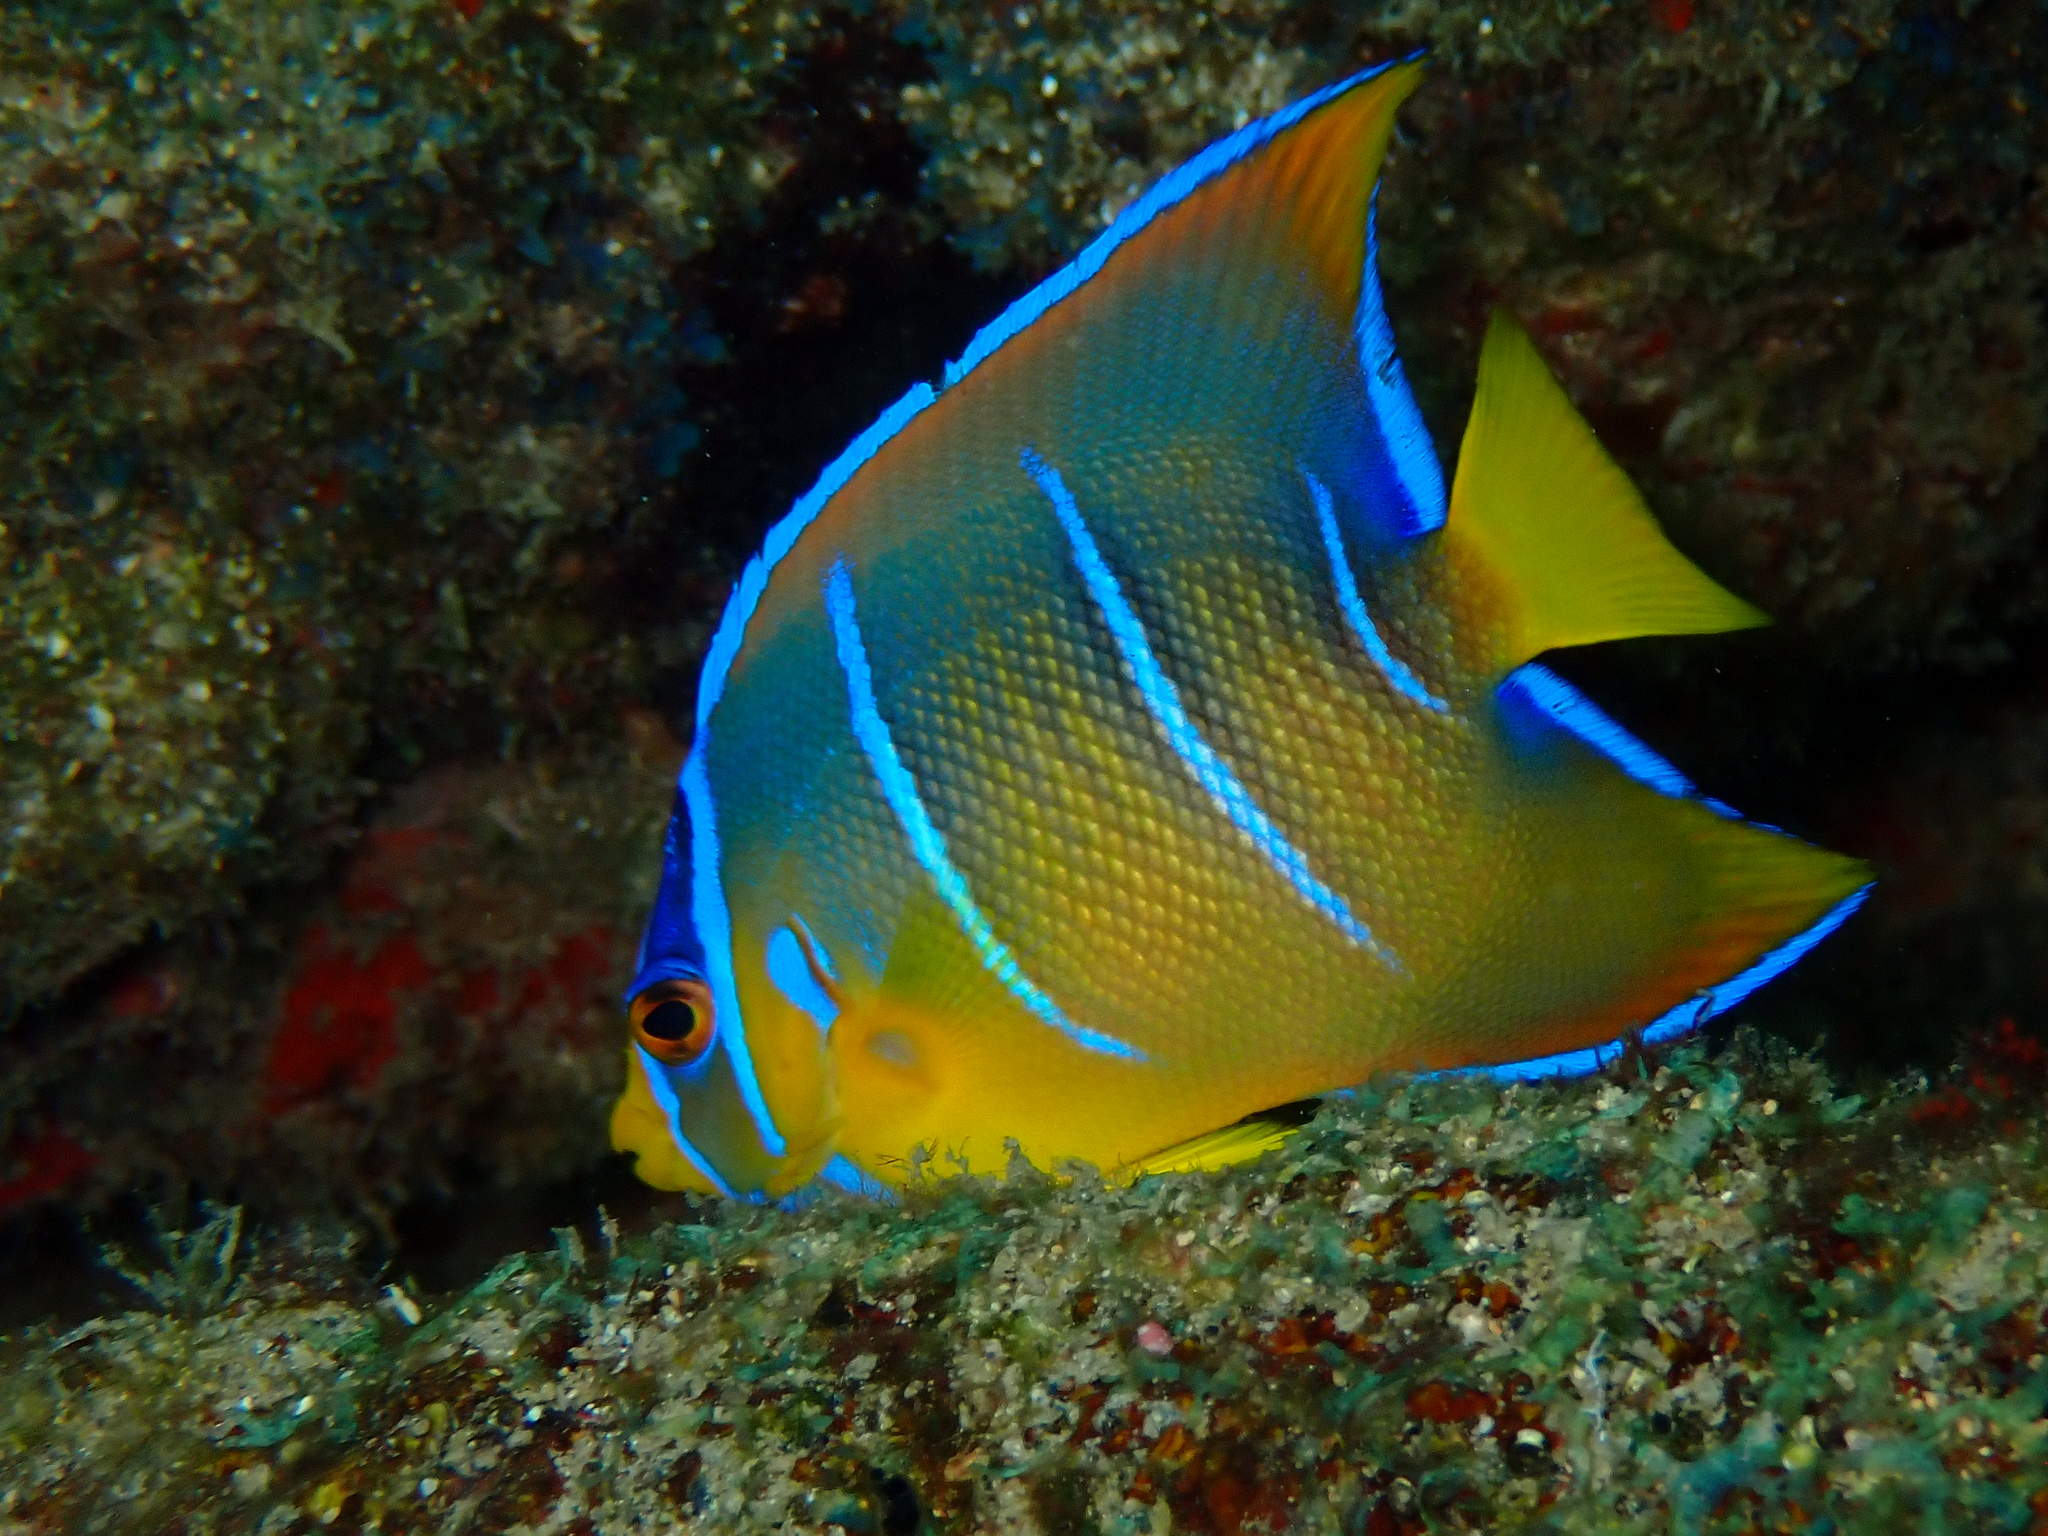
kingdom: Animalia
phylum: Chordata
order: Perciformes
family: Pomacanthidae
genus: Holacanthus
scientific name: Holacanthus ciliaris
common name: Queen angelfish
